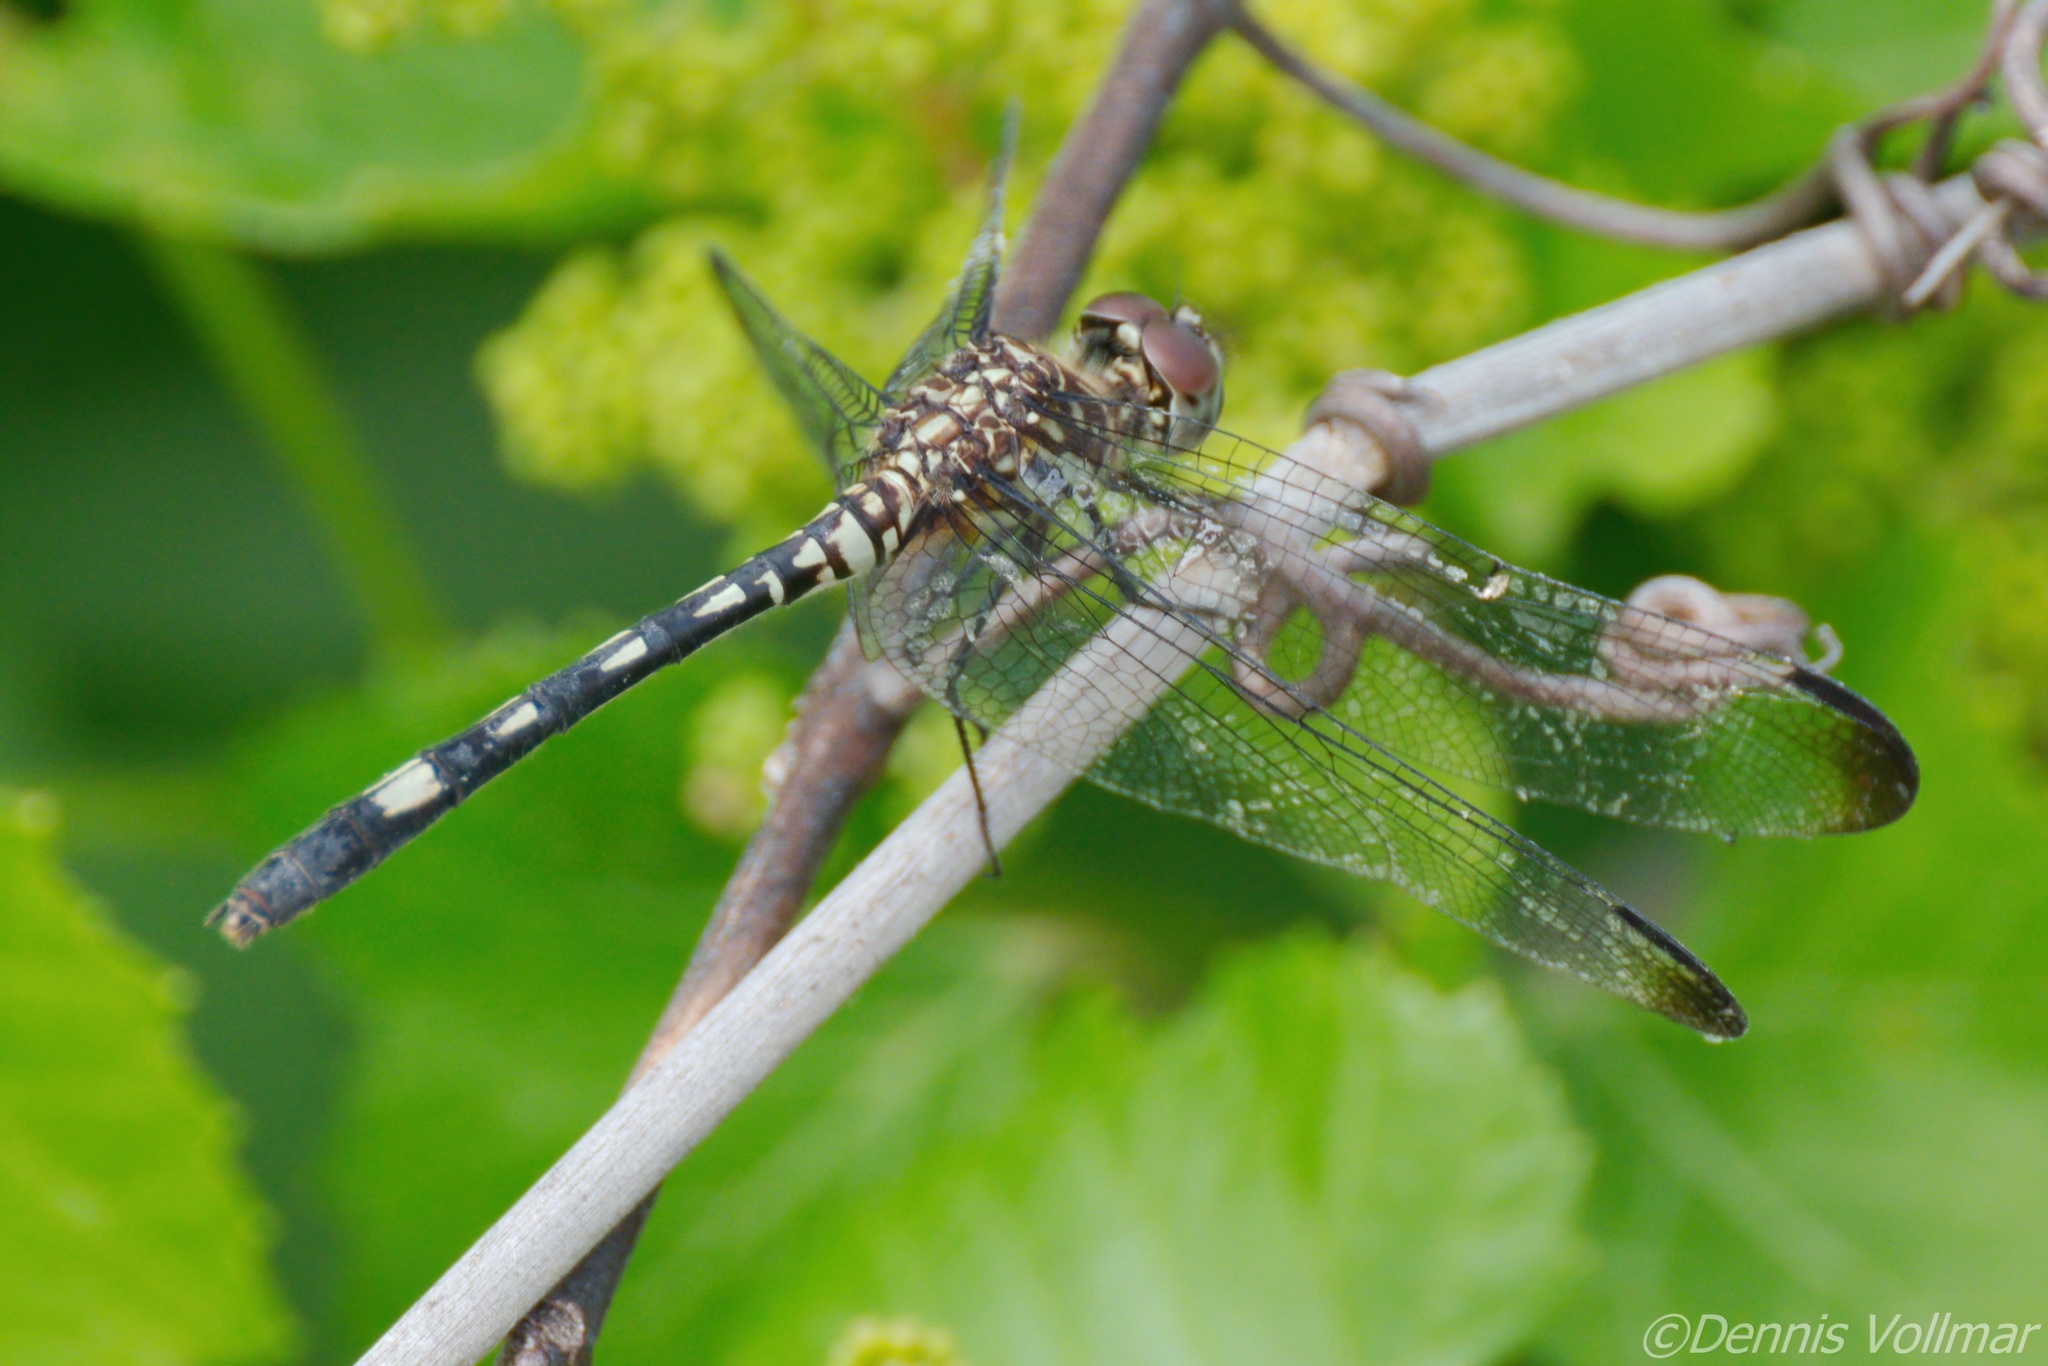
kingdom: Animalia
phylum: Arthropoda
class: Insecta
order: Odonata
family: Libellulidae
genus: Dythemis
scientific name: Dythemis velox
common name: Swift setwing
